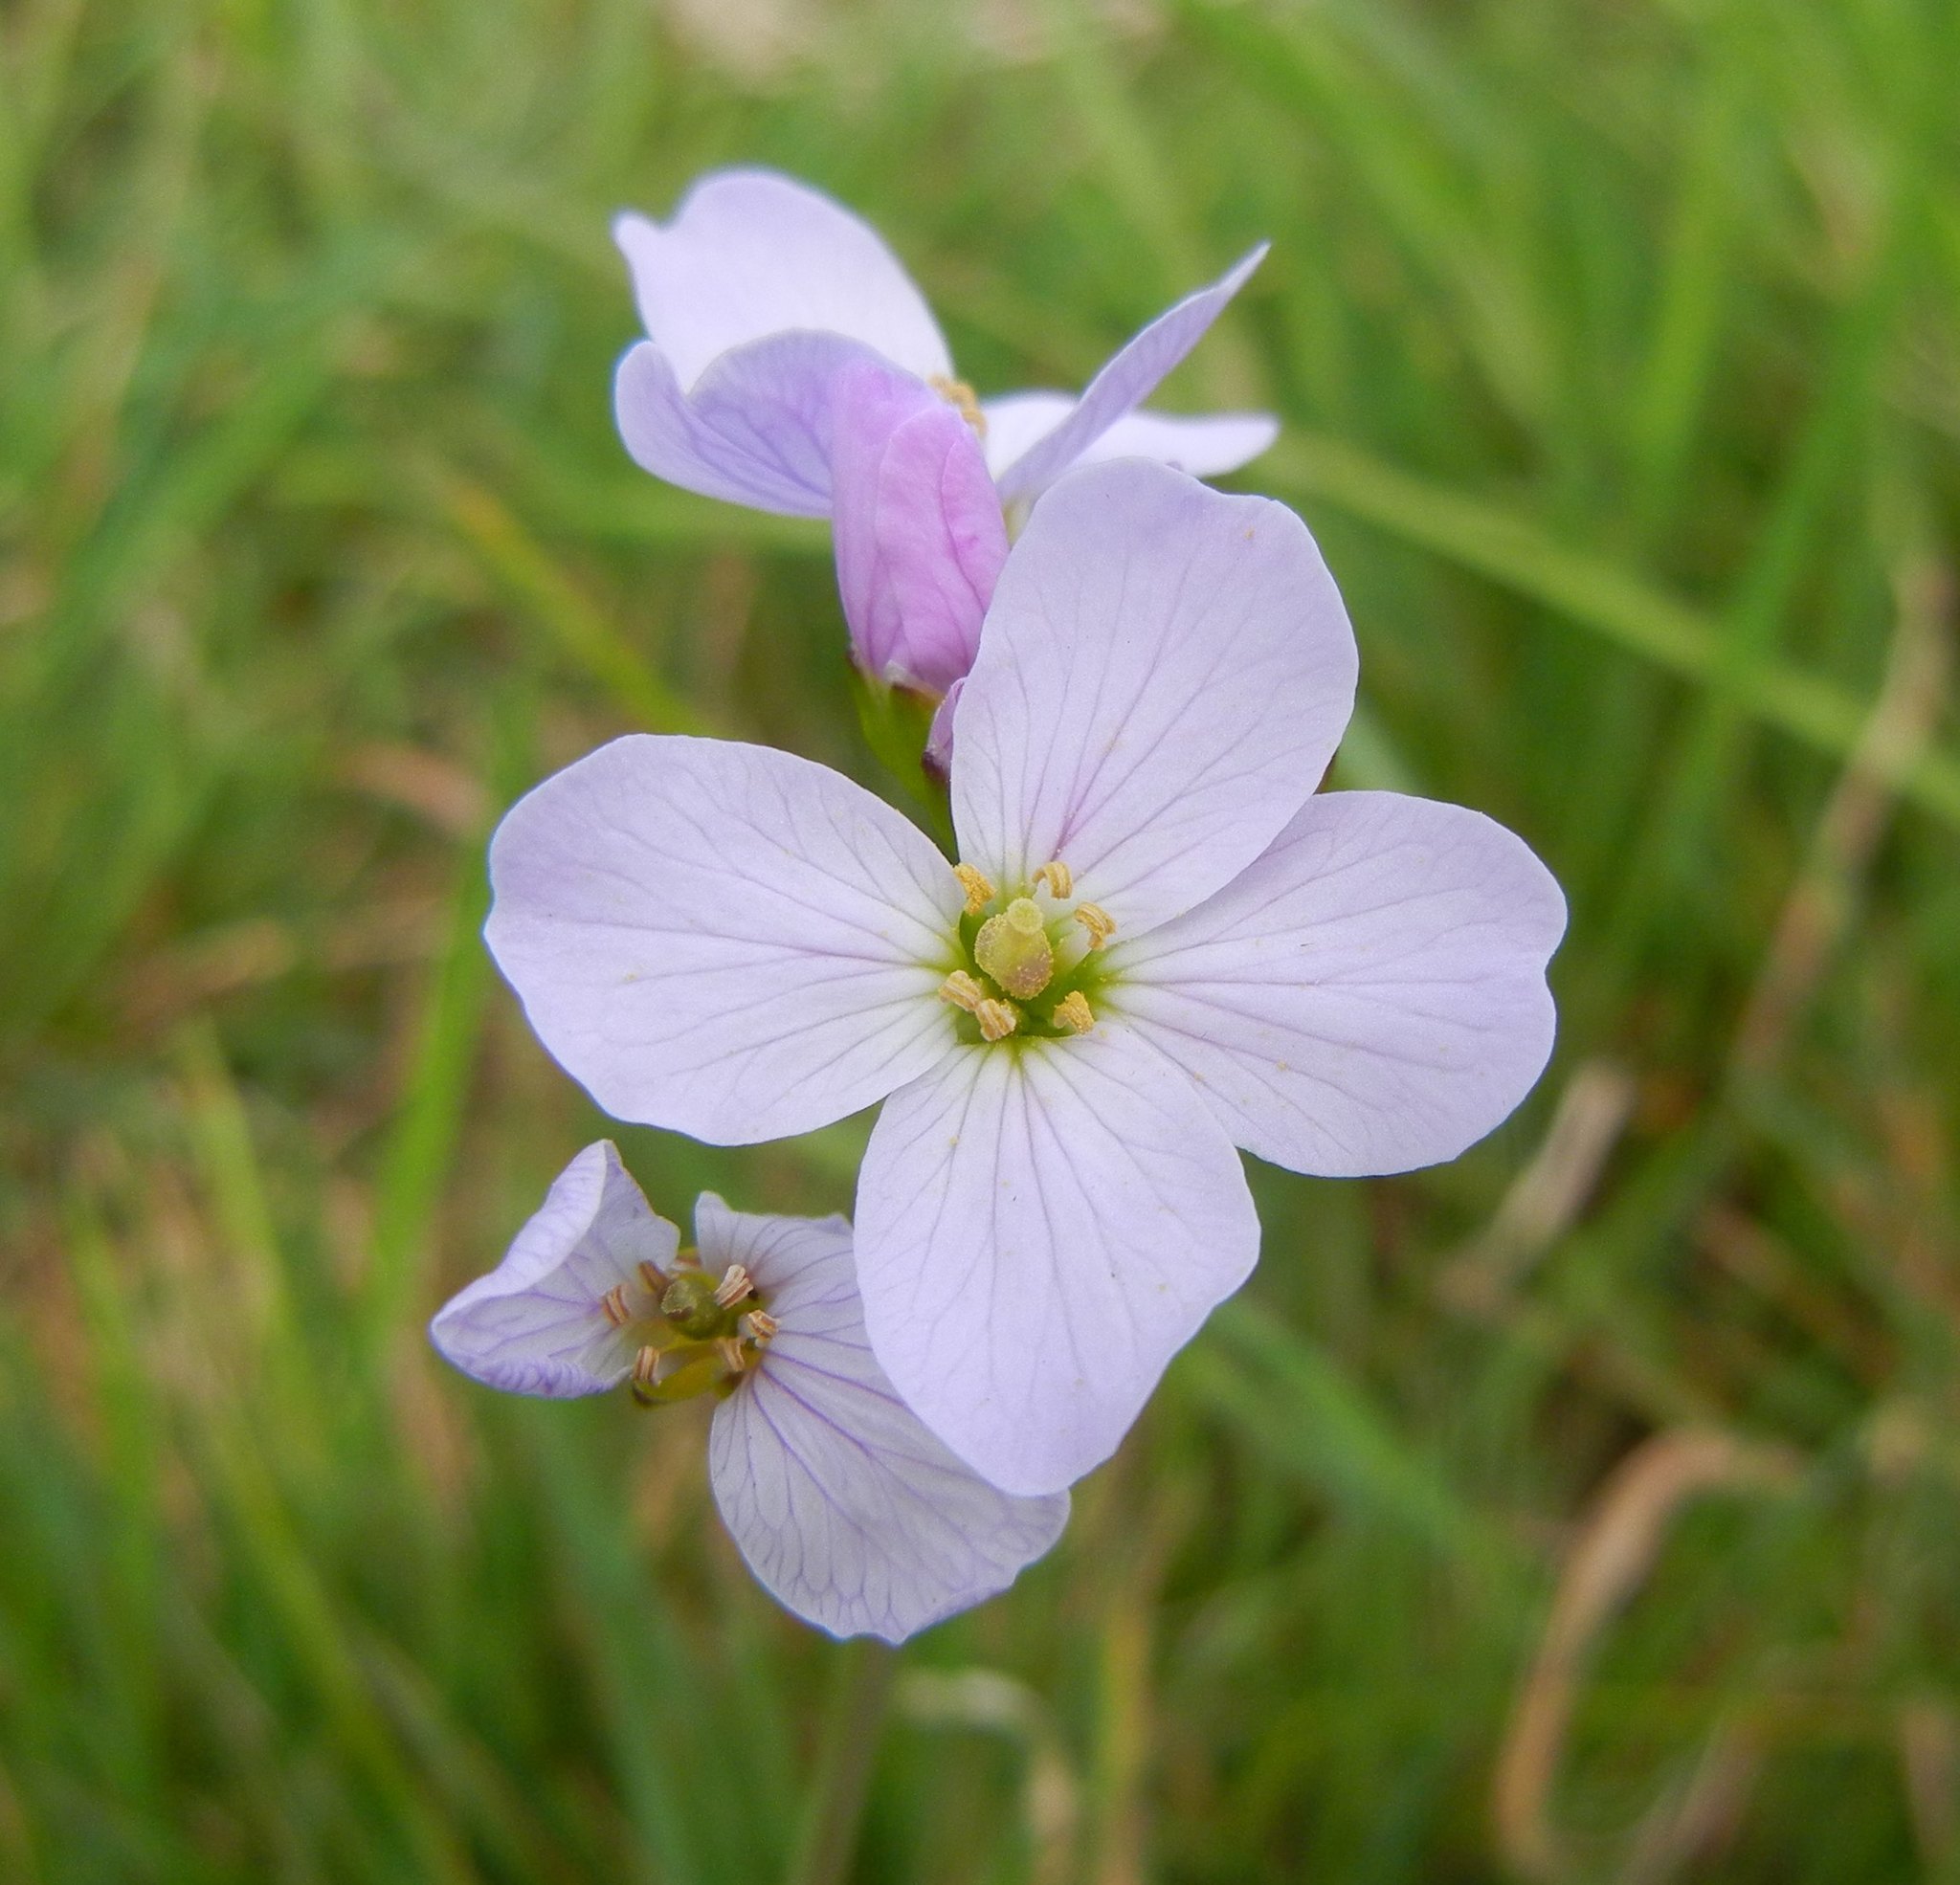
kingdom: Plantae
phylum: Tracheophyta
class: Magnoliopsida
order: Brassicales
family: Brassicaceae
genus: Cardamine
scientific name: Cardamine pratensis
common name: Cuckoo flower
